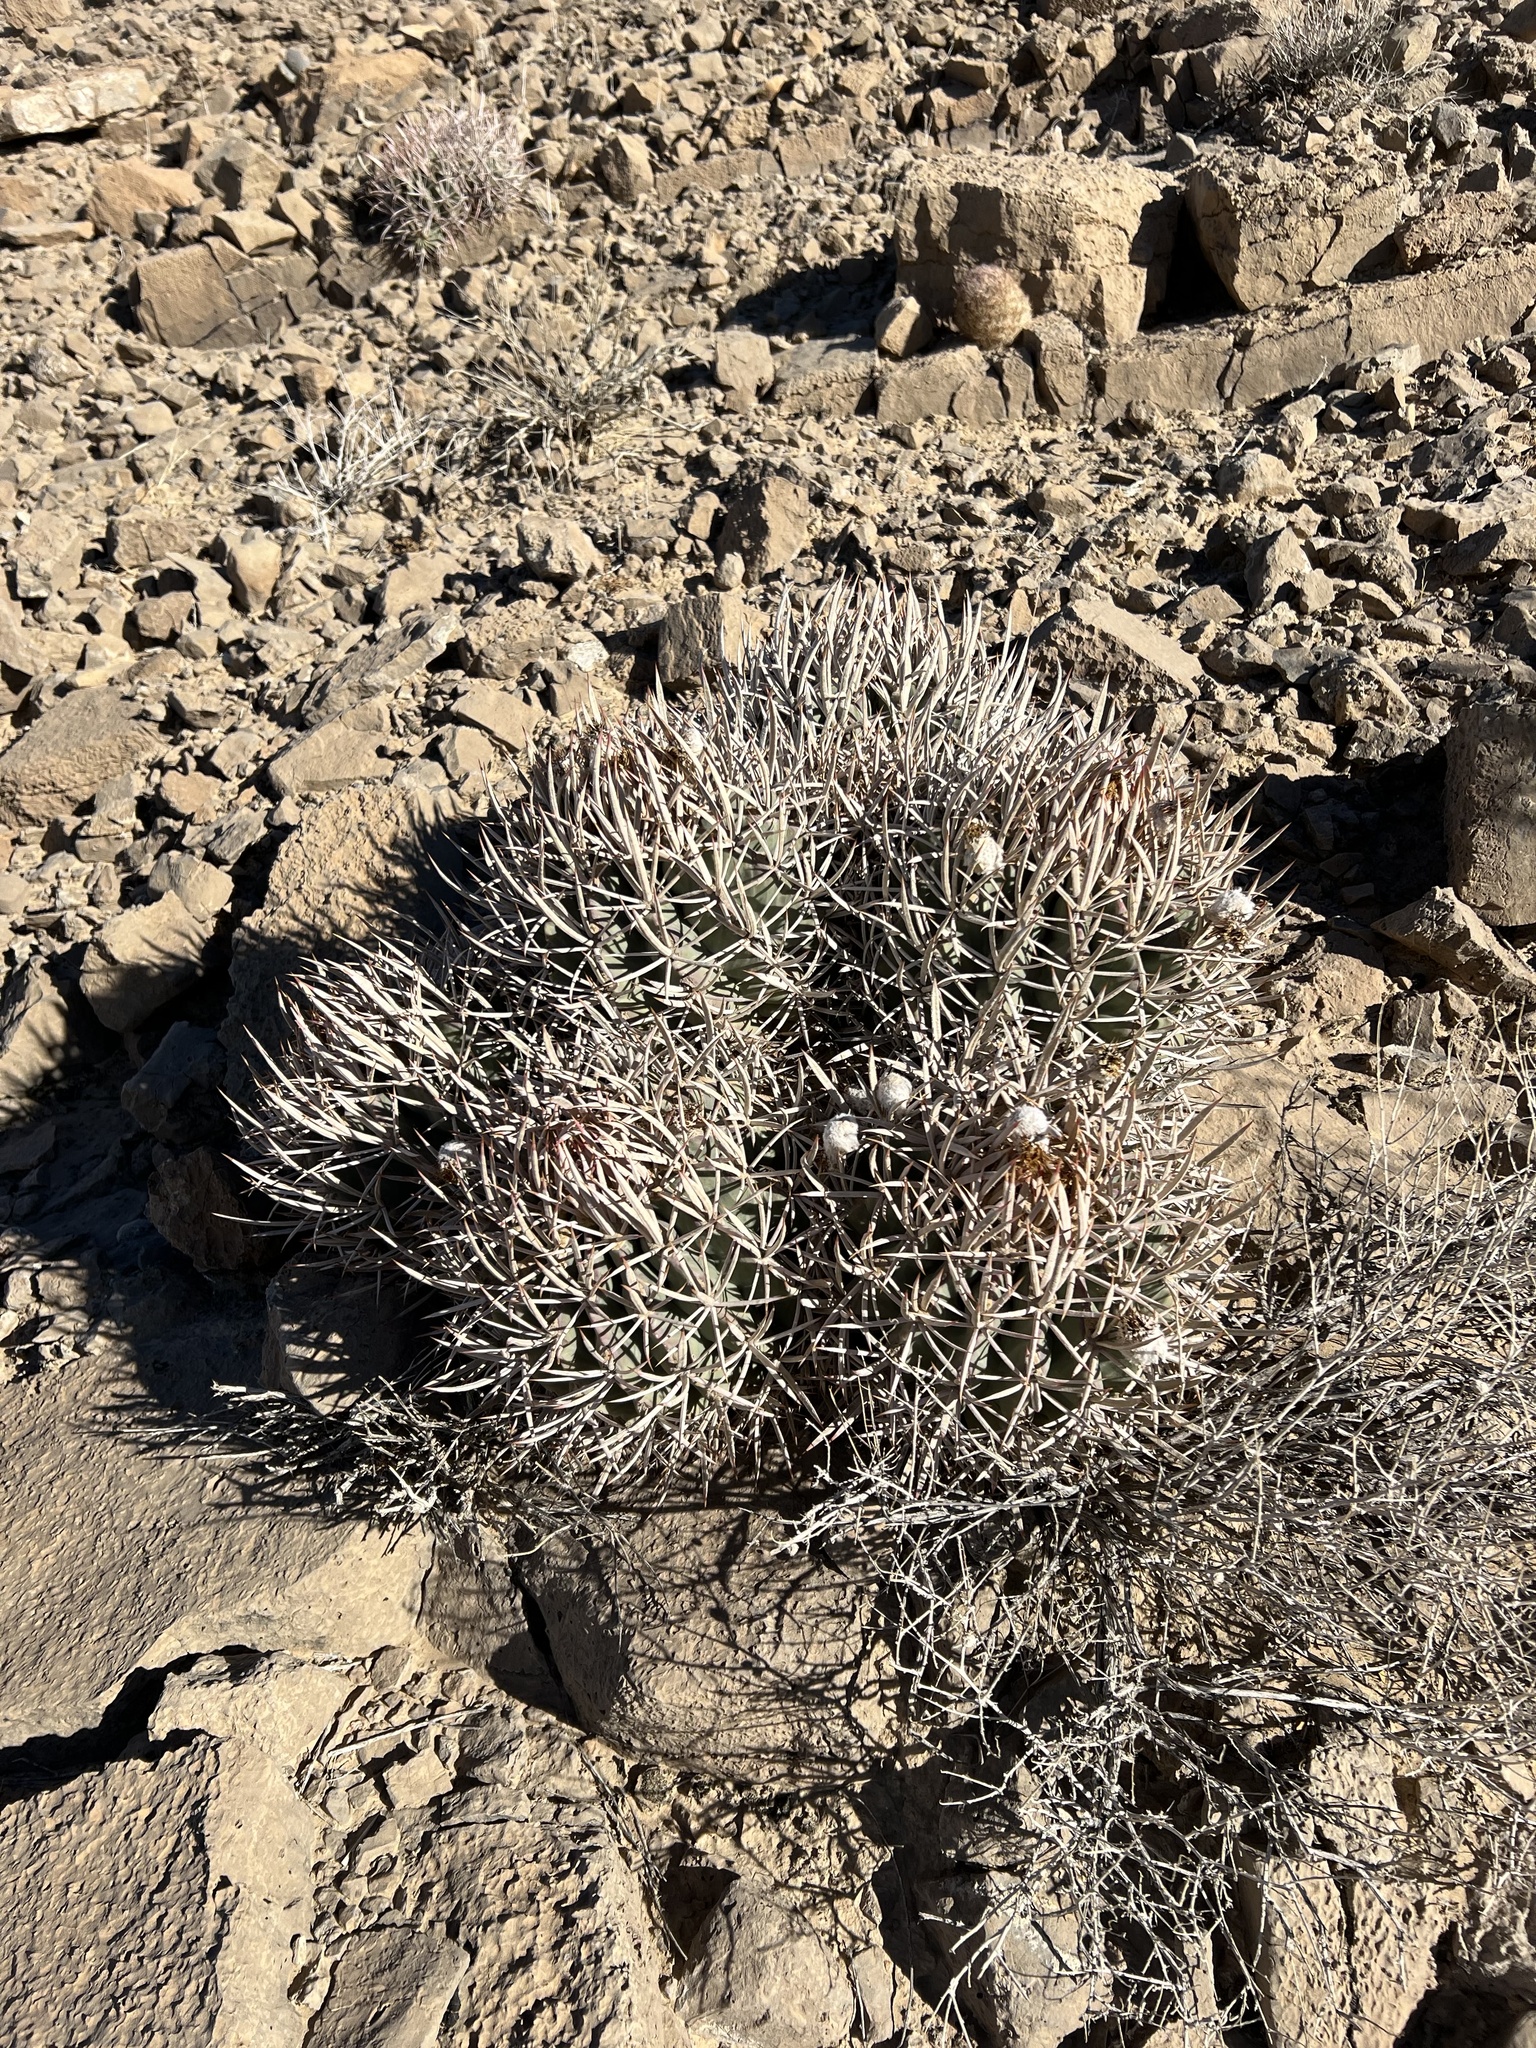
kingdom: Plantae
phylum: Tracheophyta
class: Magnoliopsida
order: Caryophyllales
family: Cactaceae
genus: Echinocactus
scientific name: Echinocactus polycephalus
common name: Cottontop cactus
